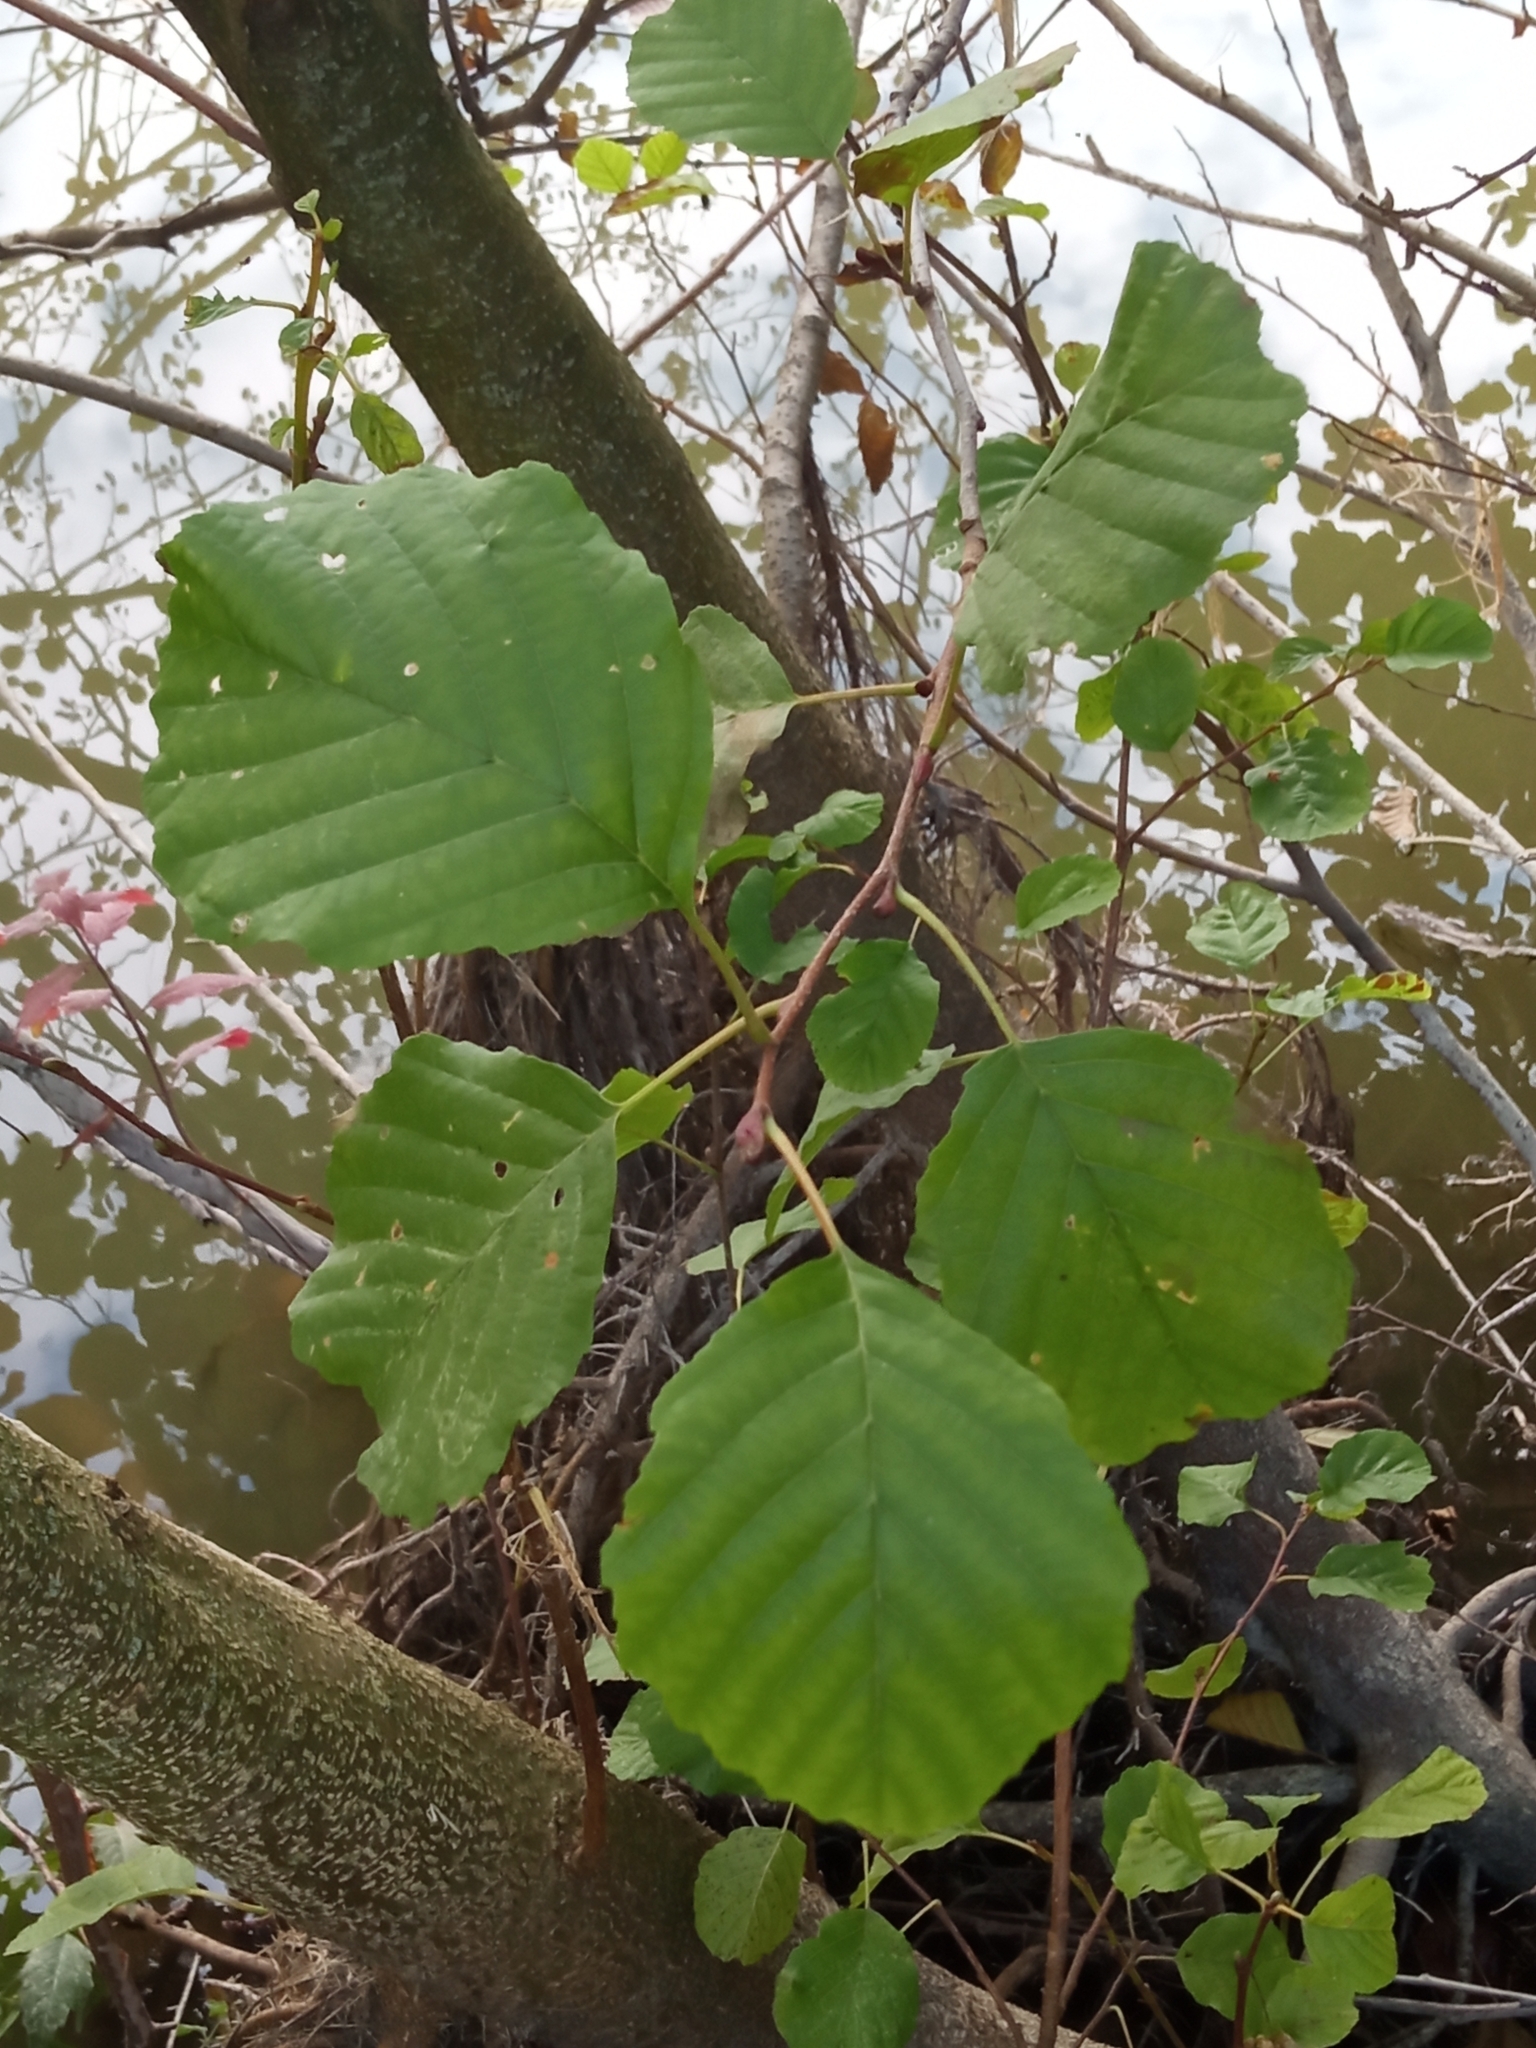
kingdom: Plantae
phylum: Tracheophyta
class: Magnoliopsida
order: Fagales
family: Betulaceae
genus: Alnus
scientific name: Alnus glutinosa
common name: Black alder
